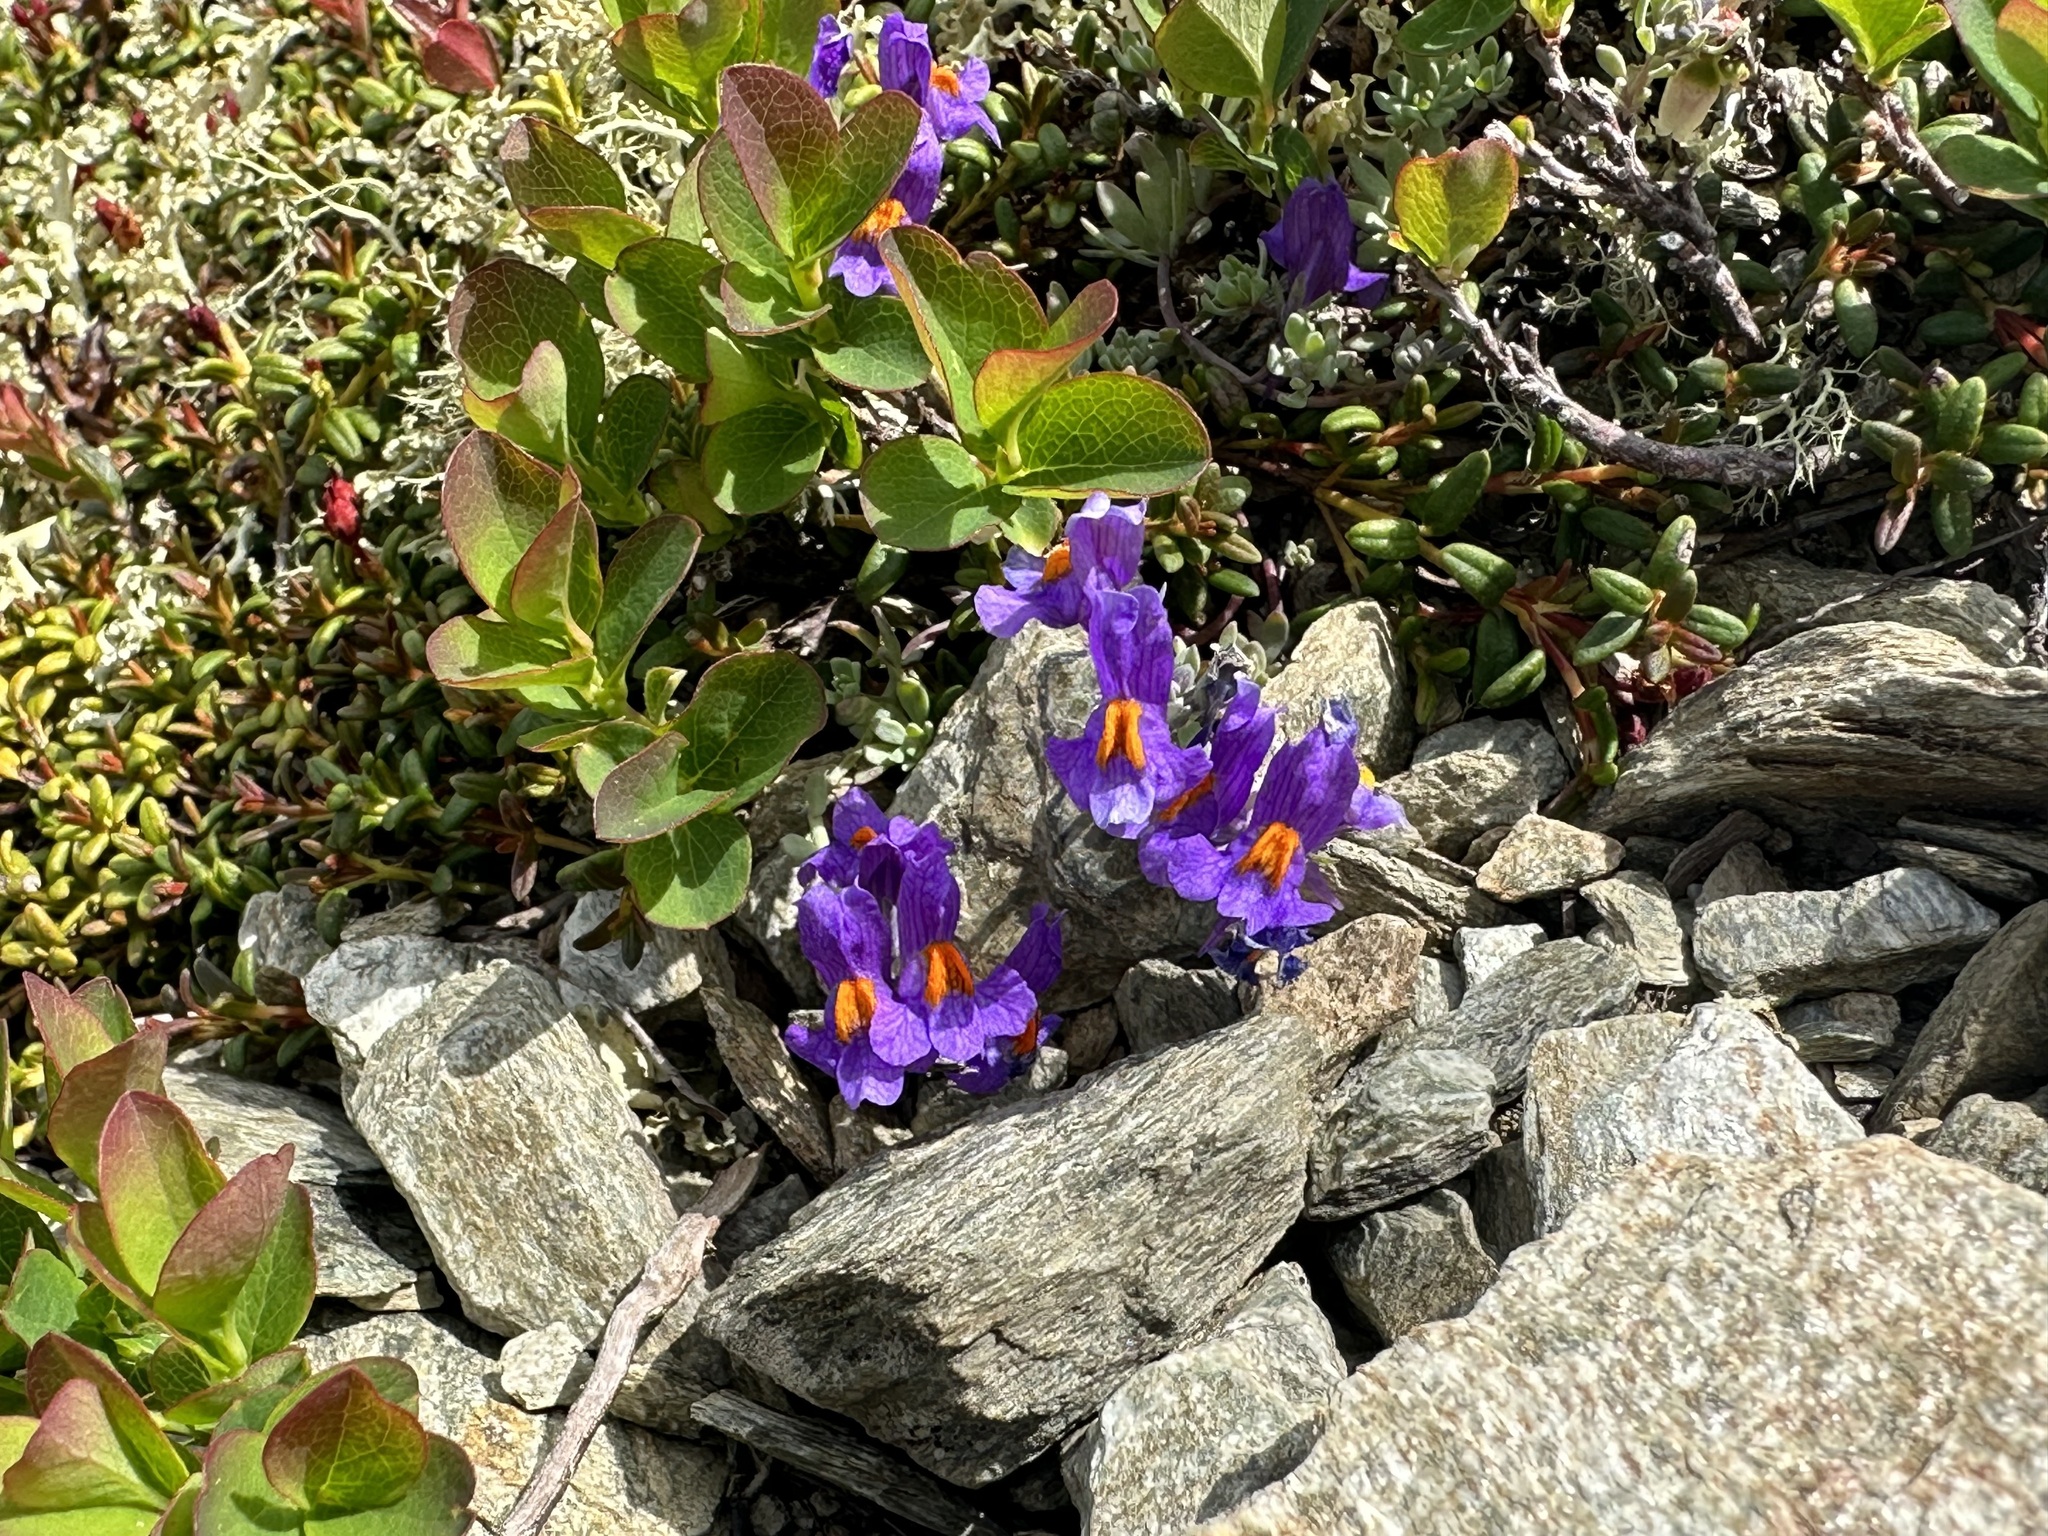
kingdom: Plantae
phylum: Tracheophyta
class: Magnoliopsida
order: Lamiales
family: Plantaginaceae
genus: Linaria
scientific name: Linaria alpina
